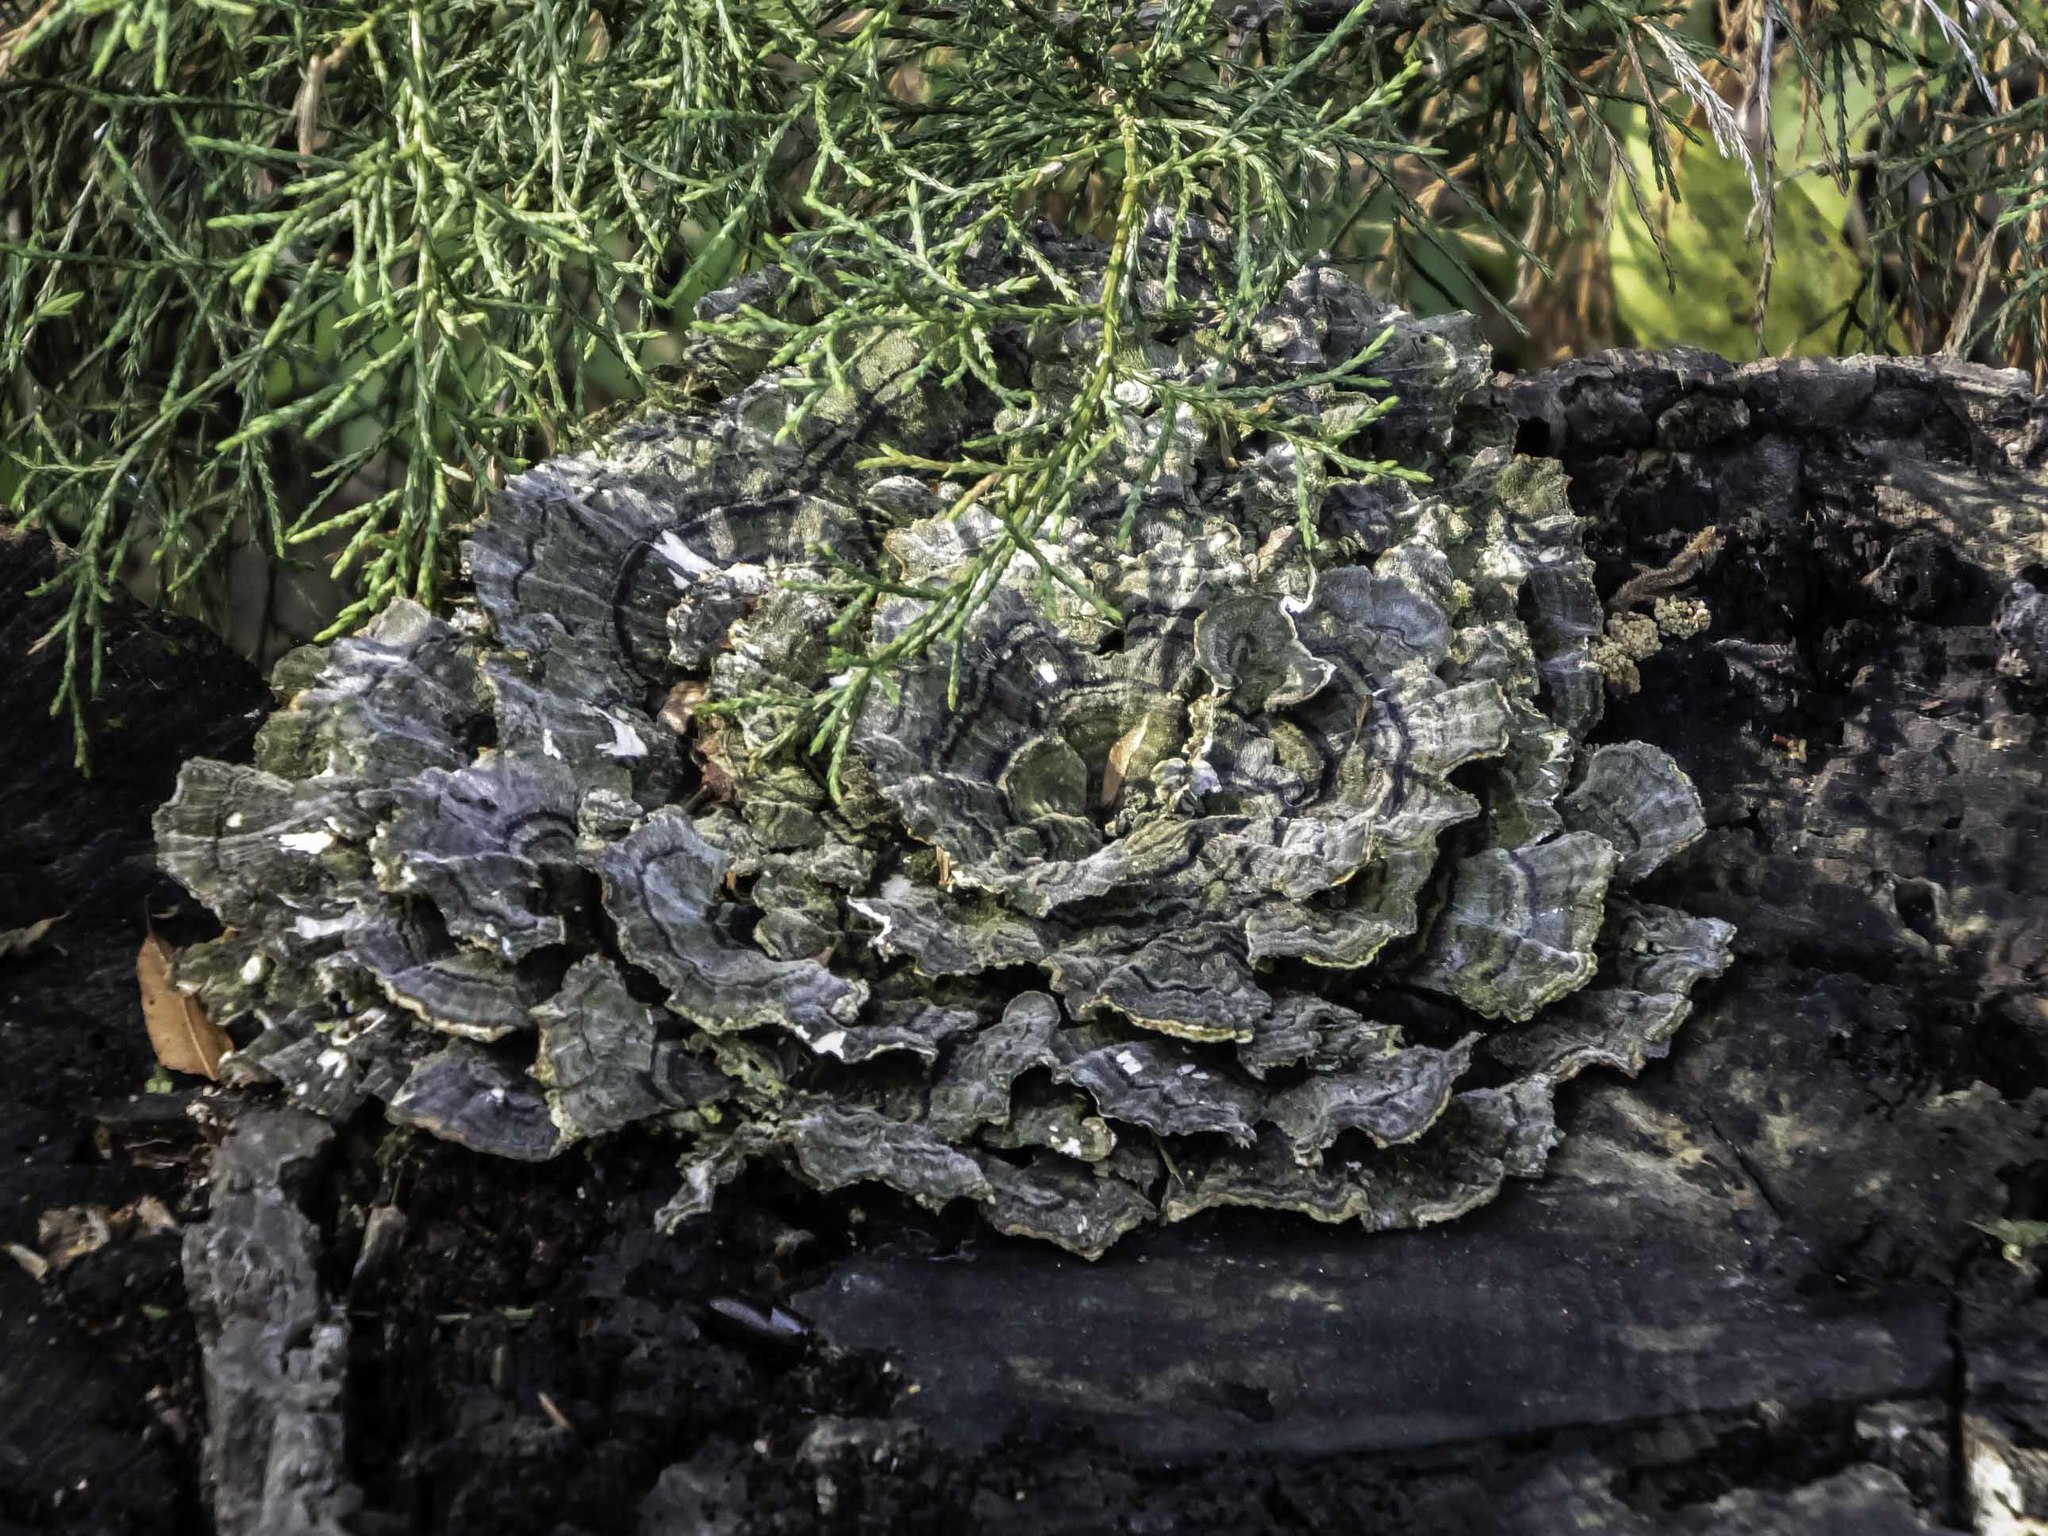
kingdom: Fungi
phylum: Basidiomycota
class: Agaricomycetes
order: Polyporales
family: Polyporaceae
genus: Trametes
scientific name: Trametes versicolor
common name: Turkeytail
